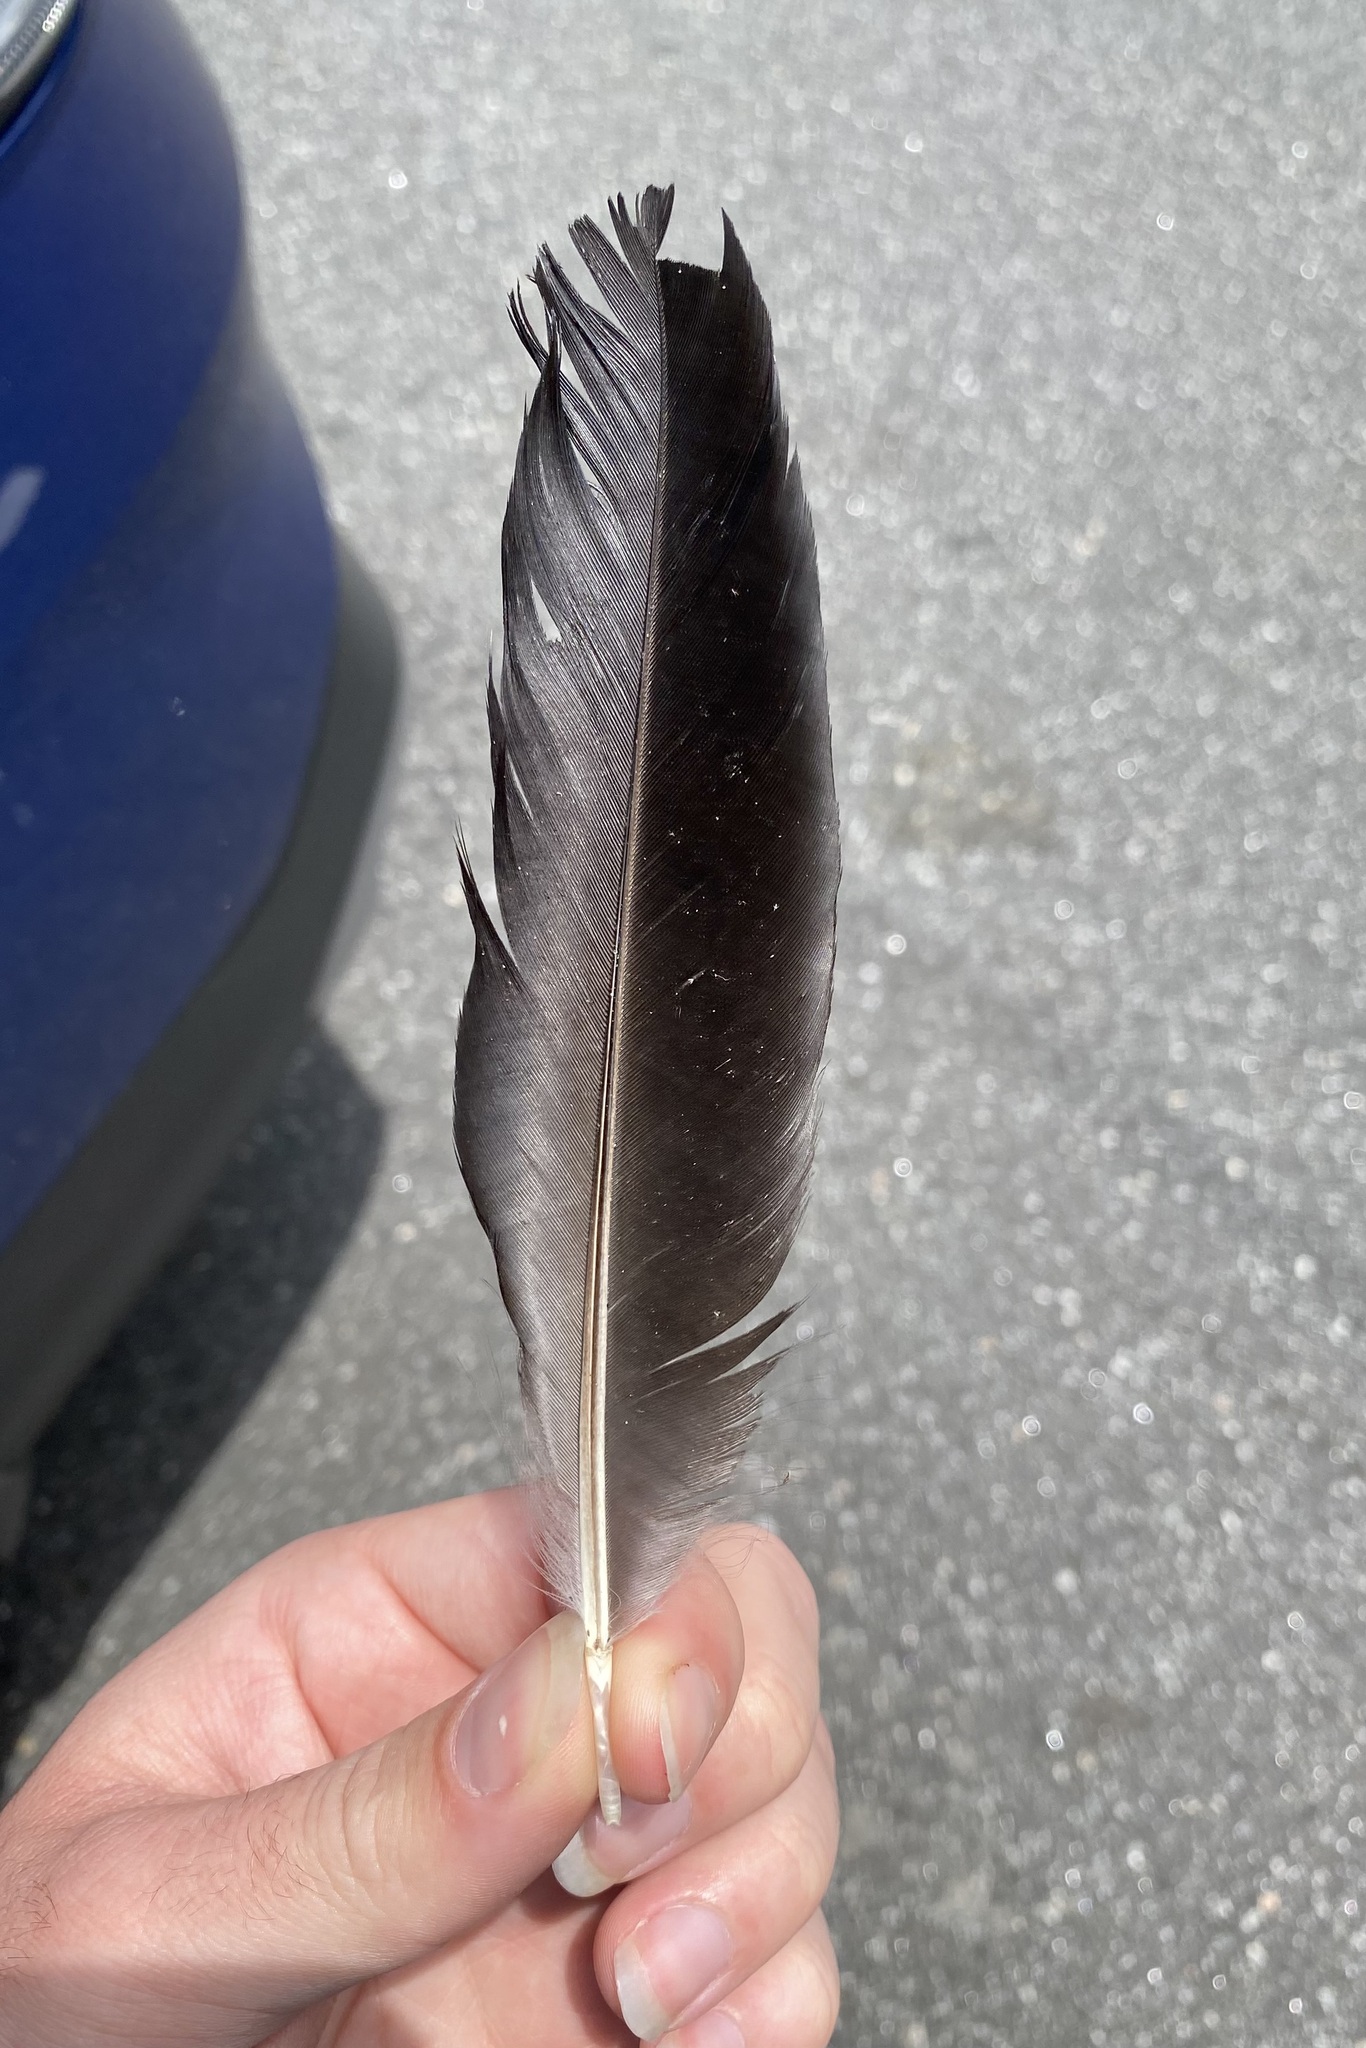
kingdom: Animalia
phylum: Chordata
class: Aves
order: Passeriformes
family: Corvidae
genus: Corvus
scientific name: Corvus
